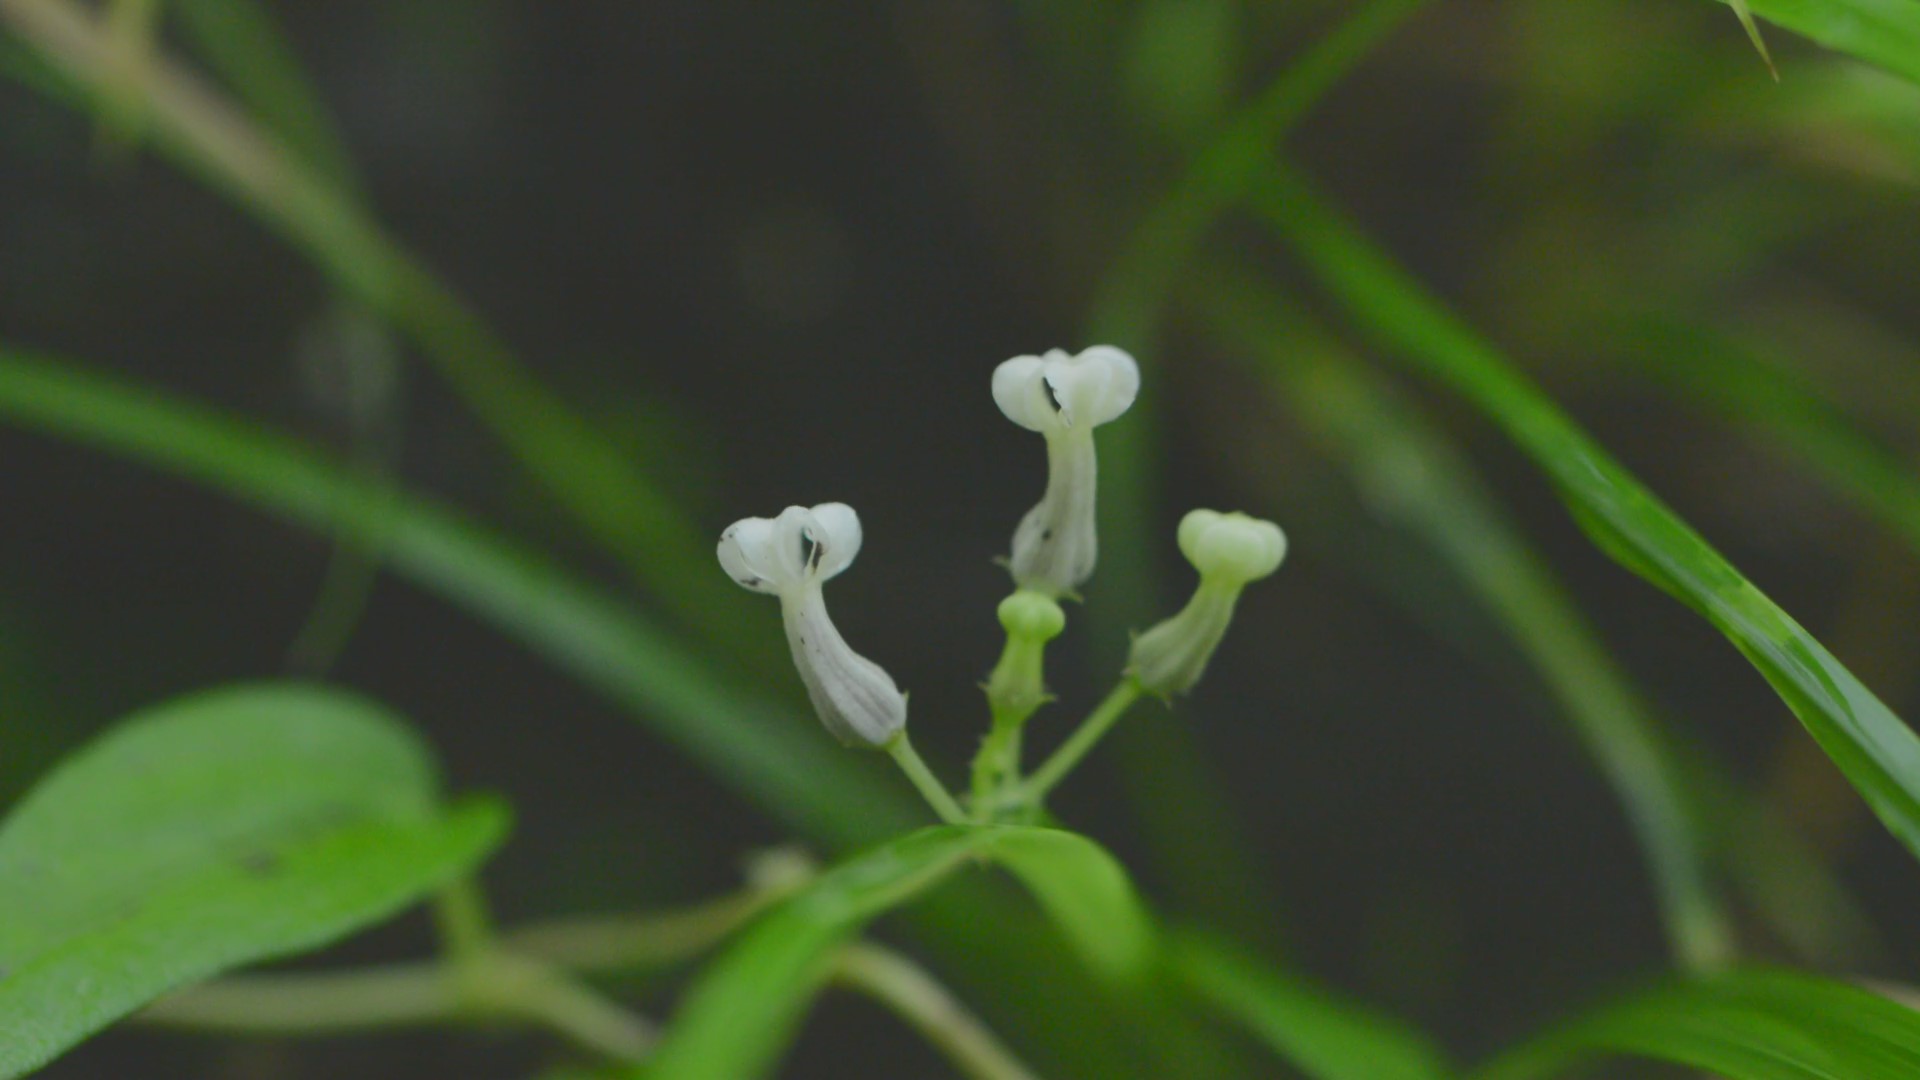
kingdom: Plantae
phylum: Tracheophyta
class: Magnoliopsida
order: Gentianales
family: Apocynaceae
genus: Ceropegia
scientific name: Ceropegia santapaui
